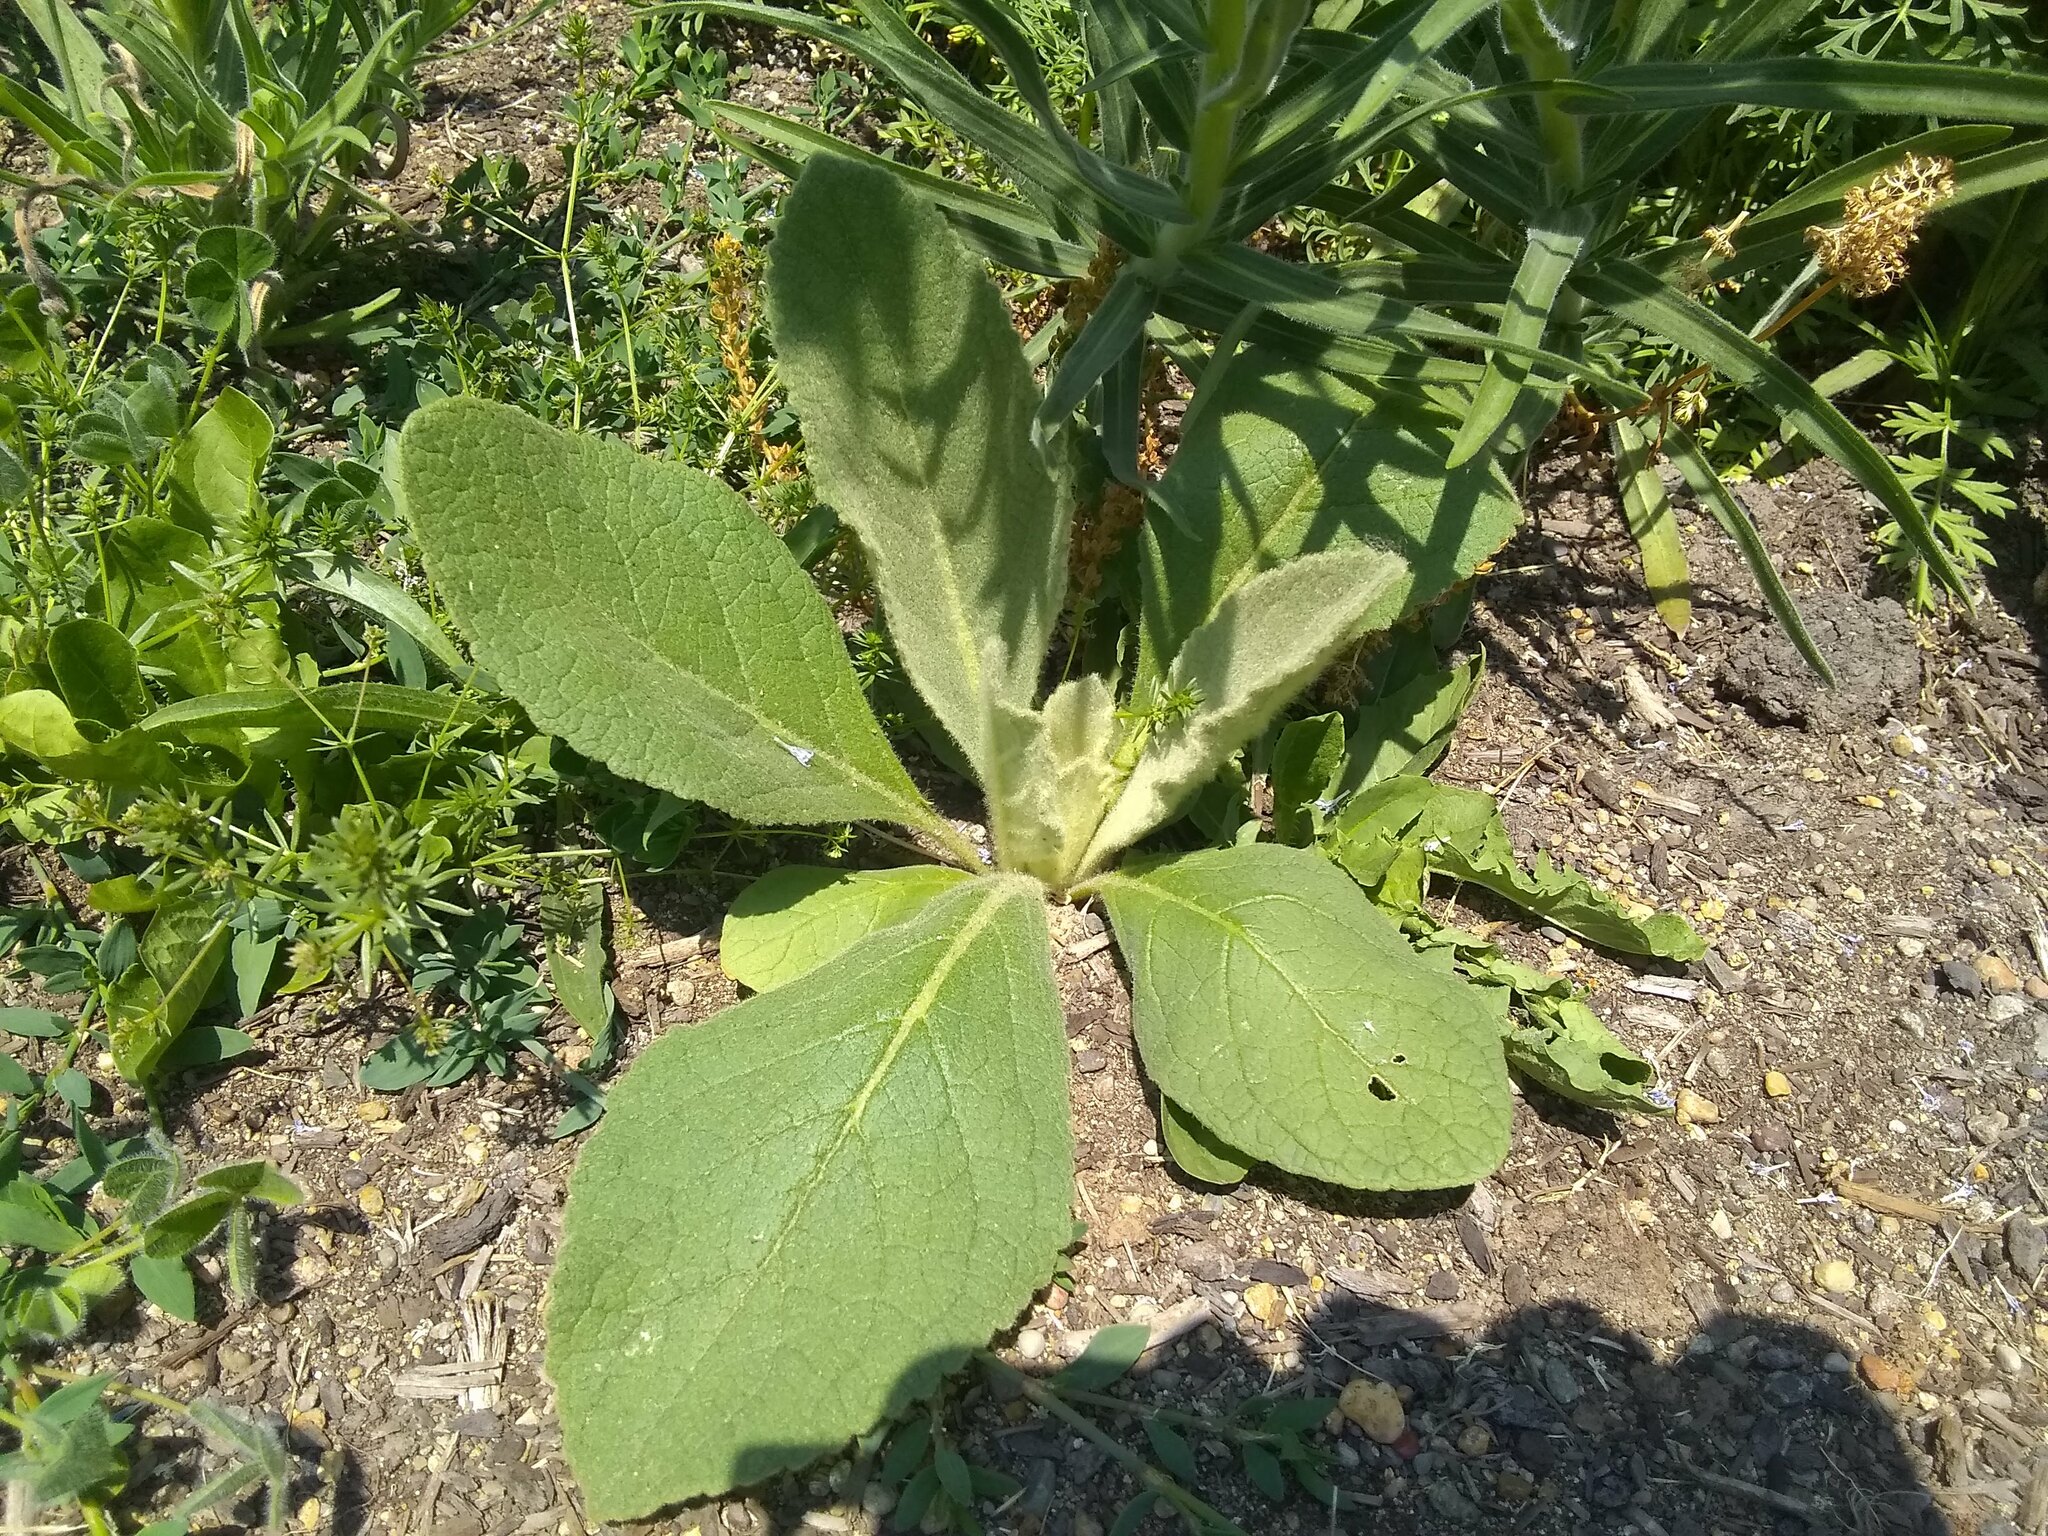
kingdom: Plantae
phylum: Tracheophyta
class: Magnoliopsida
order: Lamiales
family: Scrophulariaceae
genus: Verbascum
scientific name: Verbascum thapsus
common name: Common mullein
